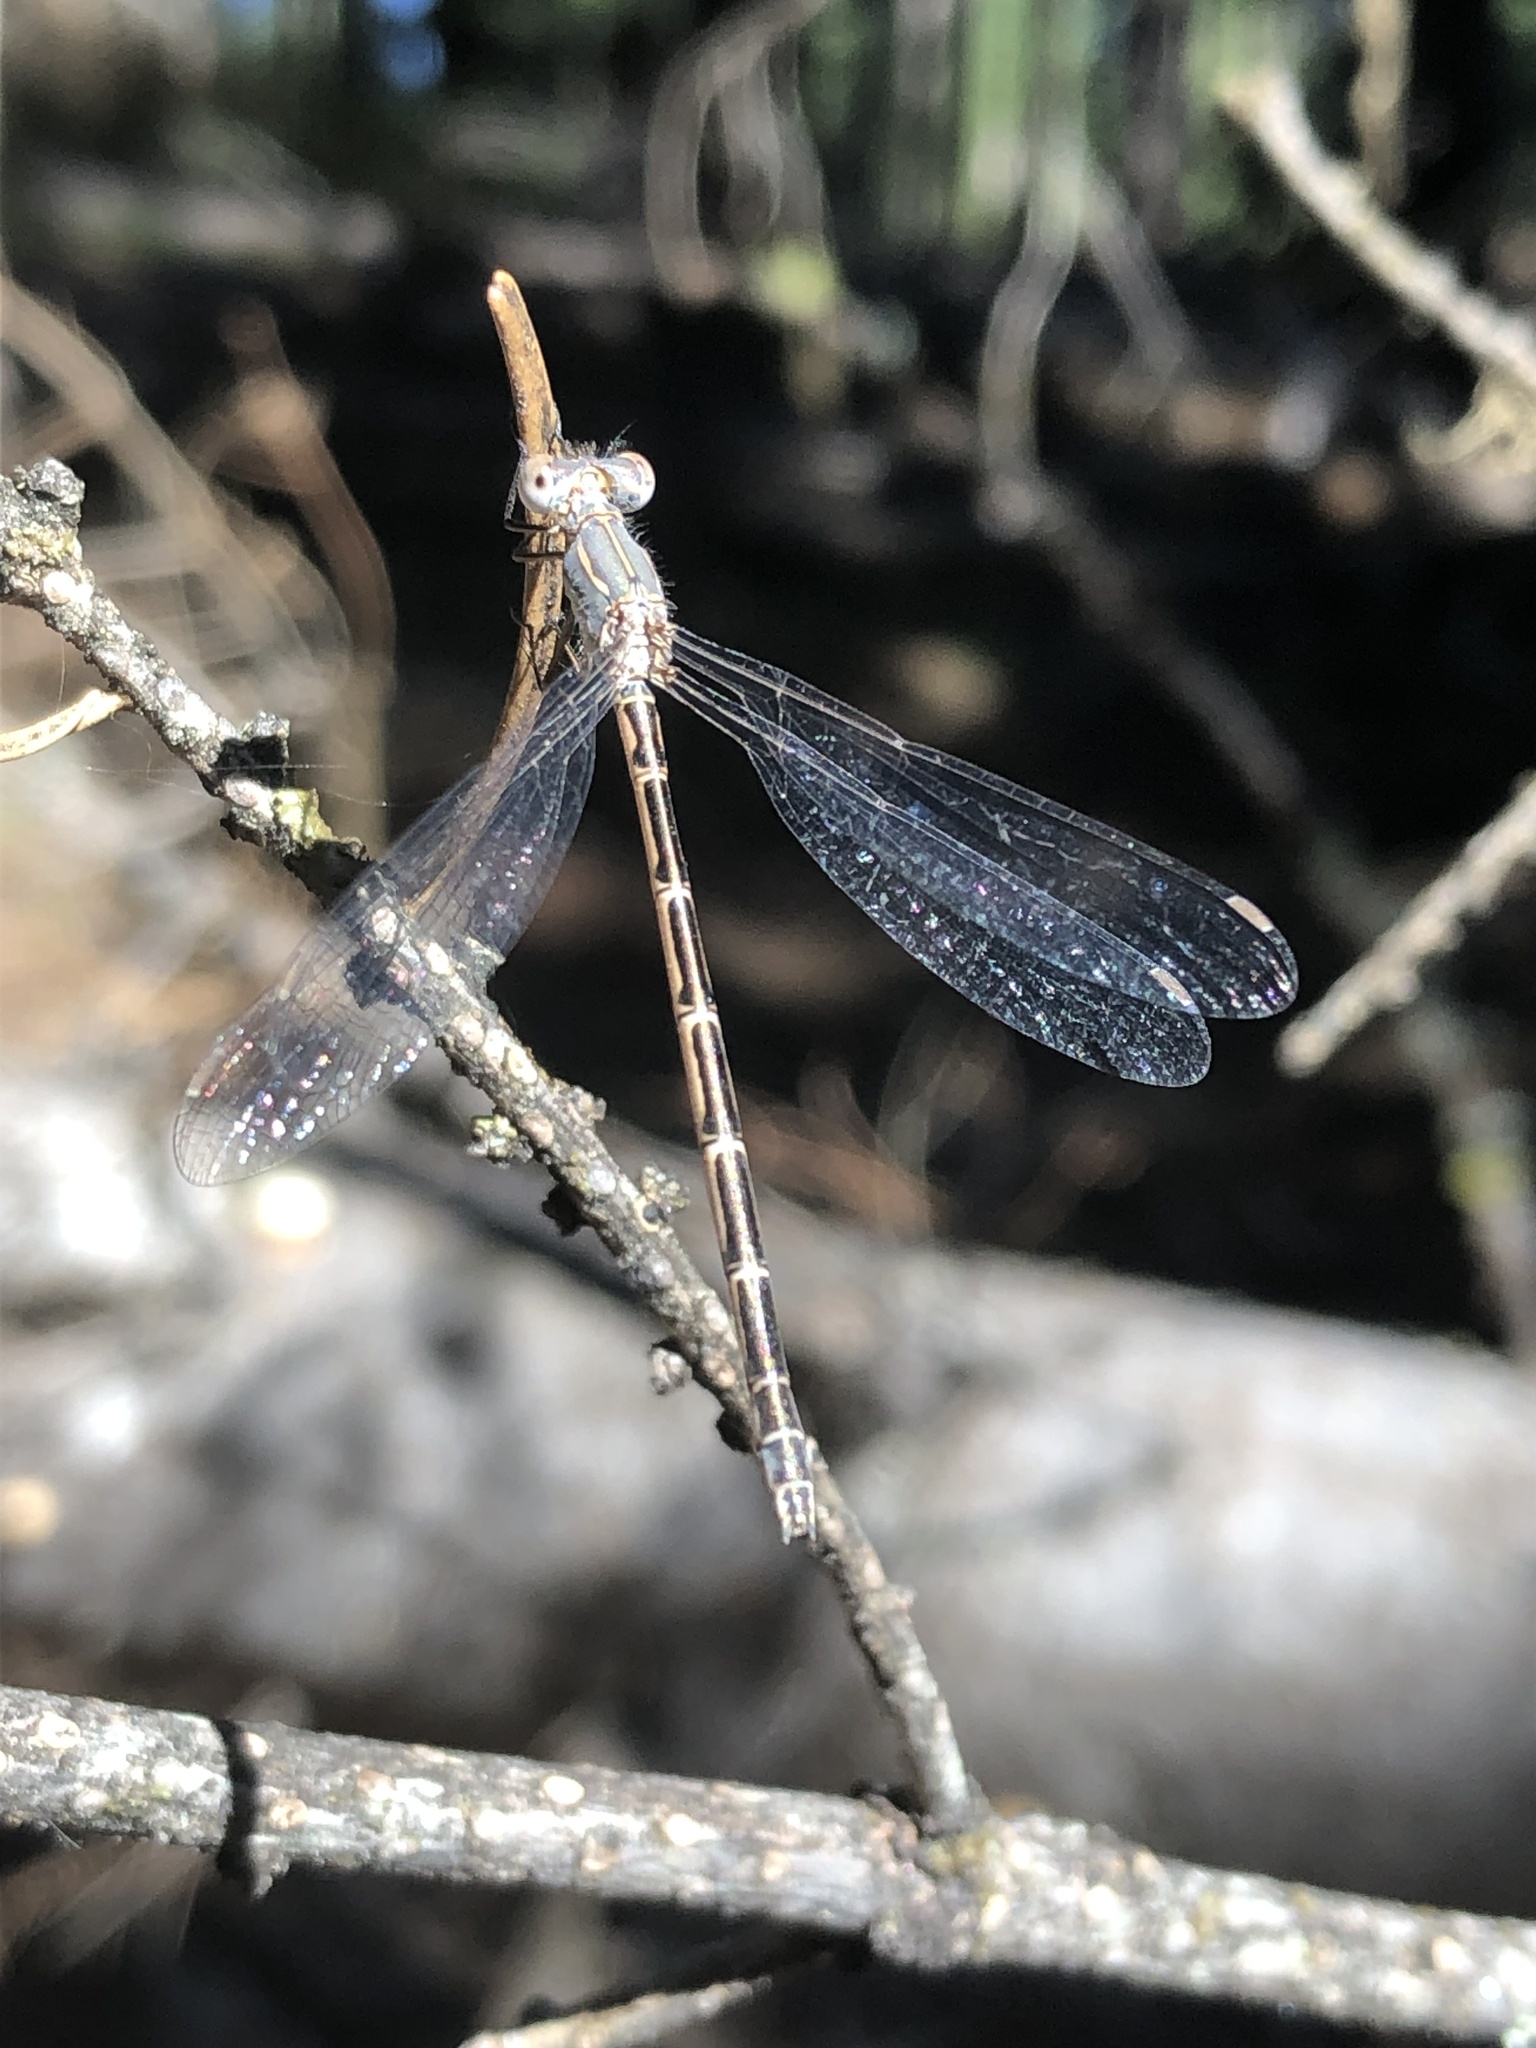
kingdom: Animalia
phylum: Arthropoda
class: Insecta
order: Odonata
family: Lestidae
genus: Lestes
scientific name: Lestes congener
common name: Spotted spreadwing
